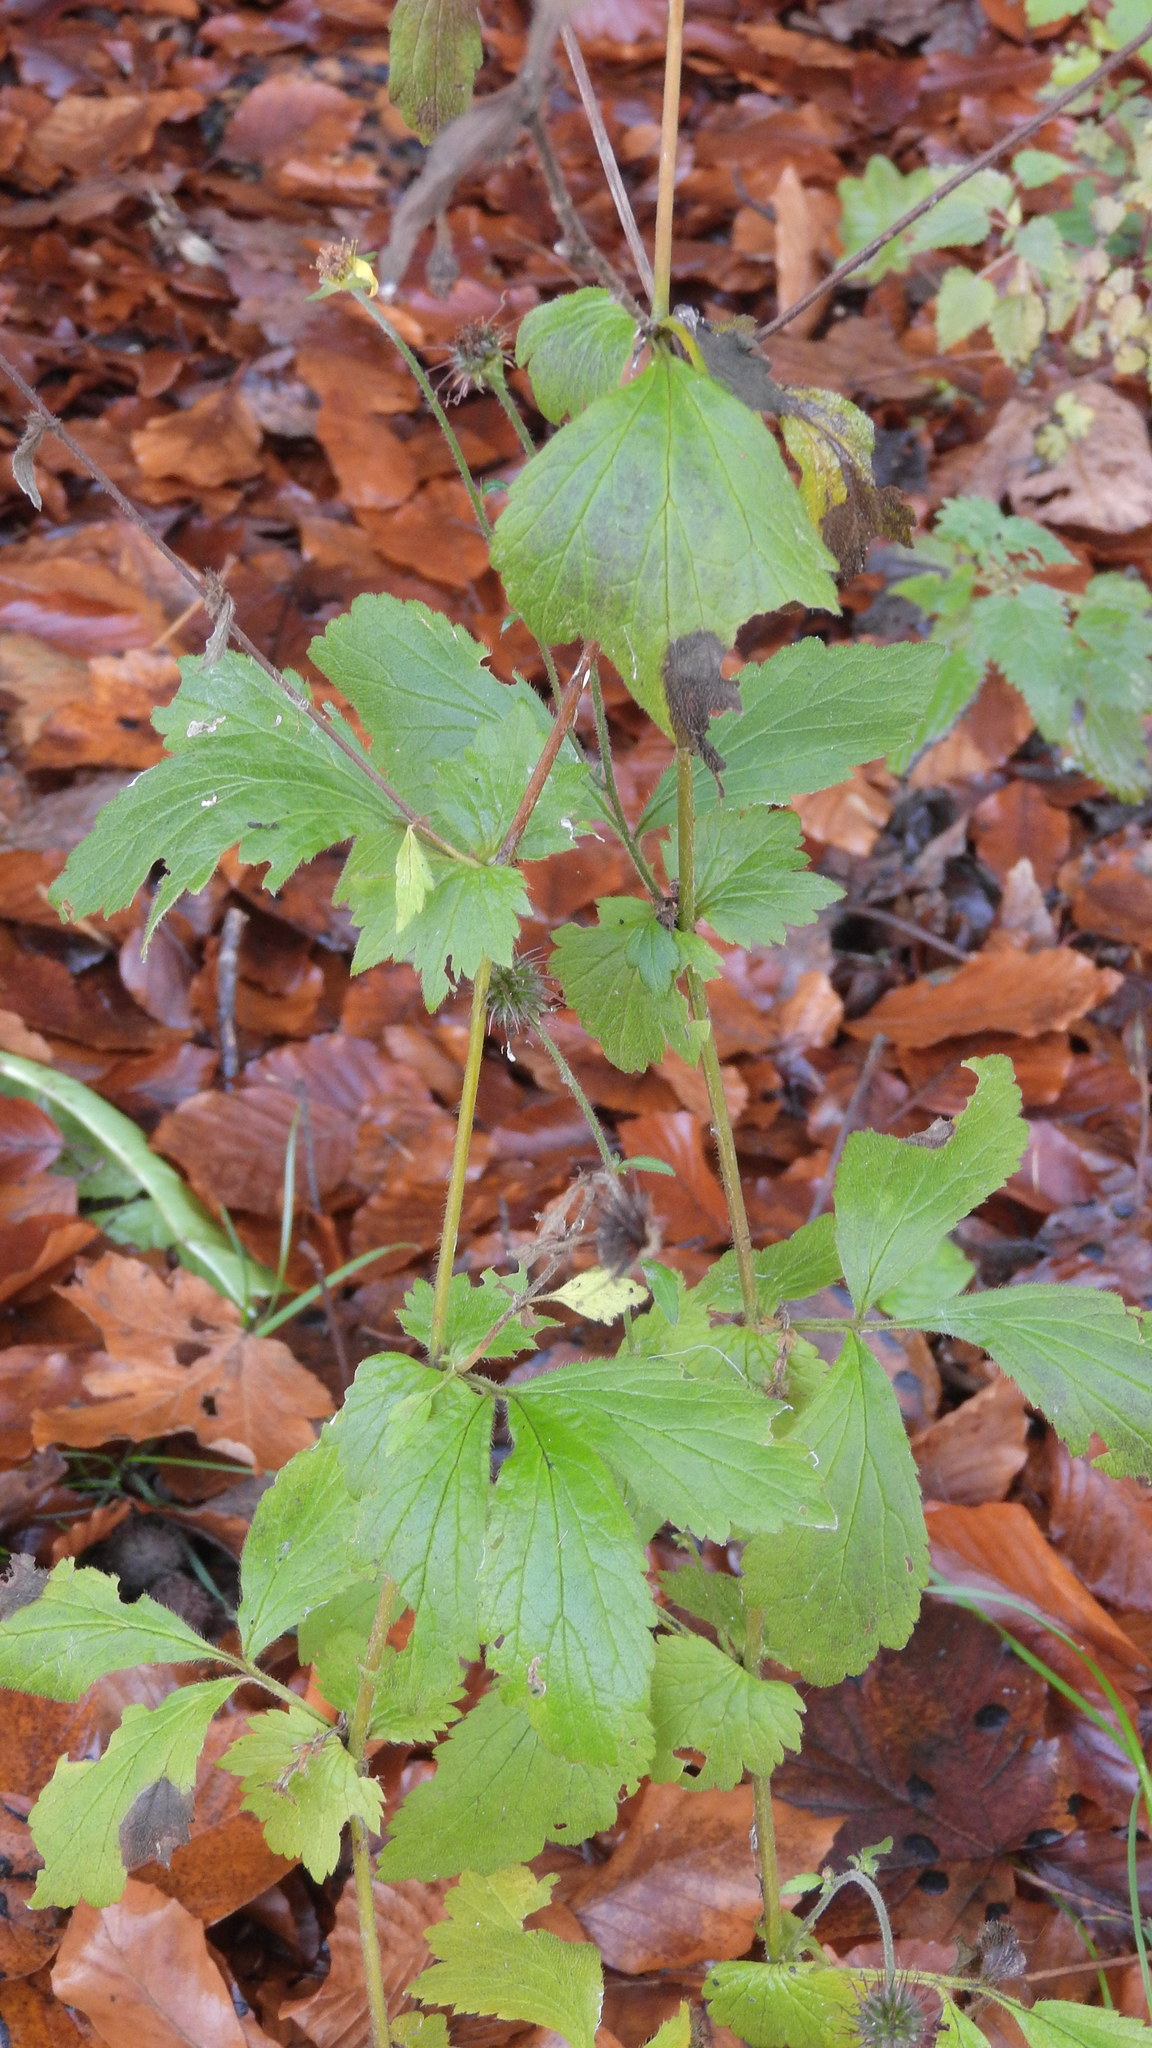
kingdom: Plantae
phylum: Tracheophyta
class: Magnoliopsida
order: Rosales
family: Rosaceae
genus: Geum
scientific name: Geum urbanum
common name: Wood avens
